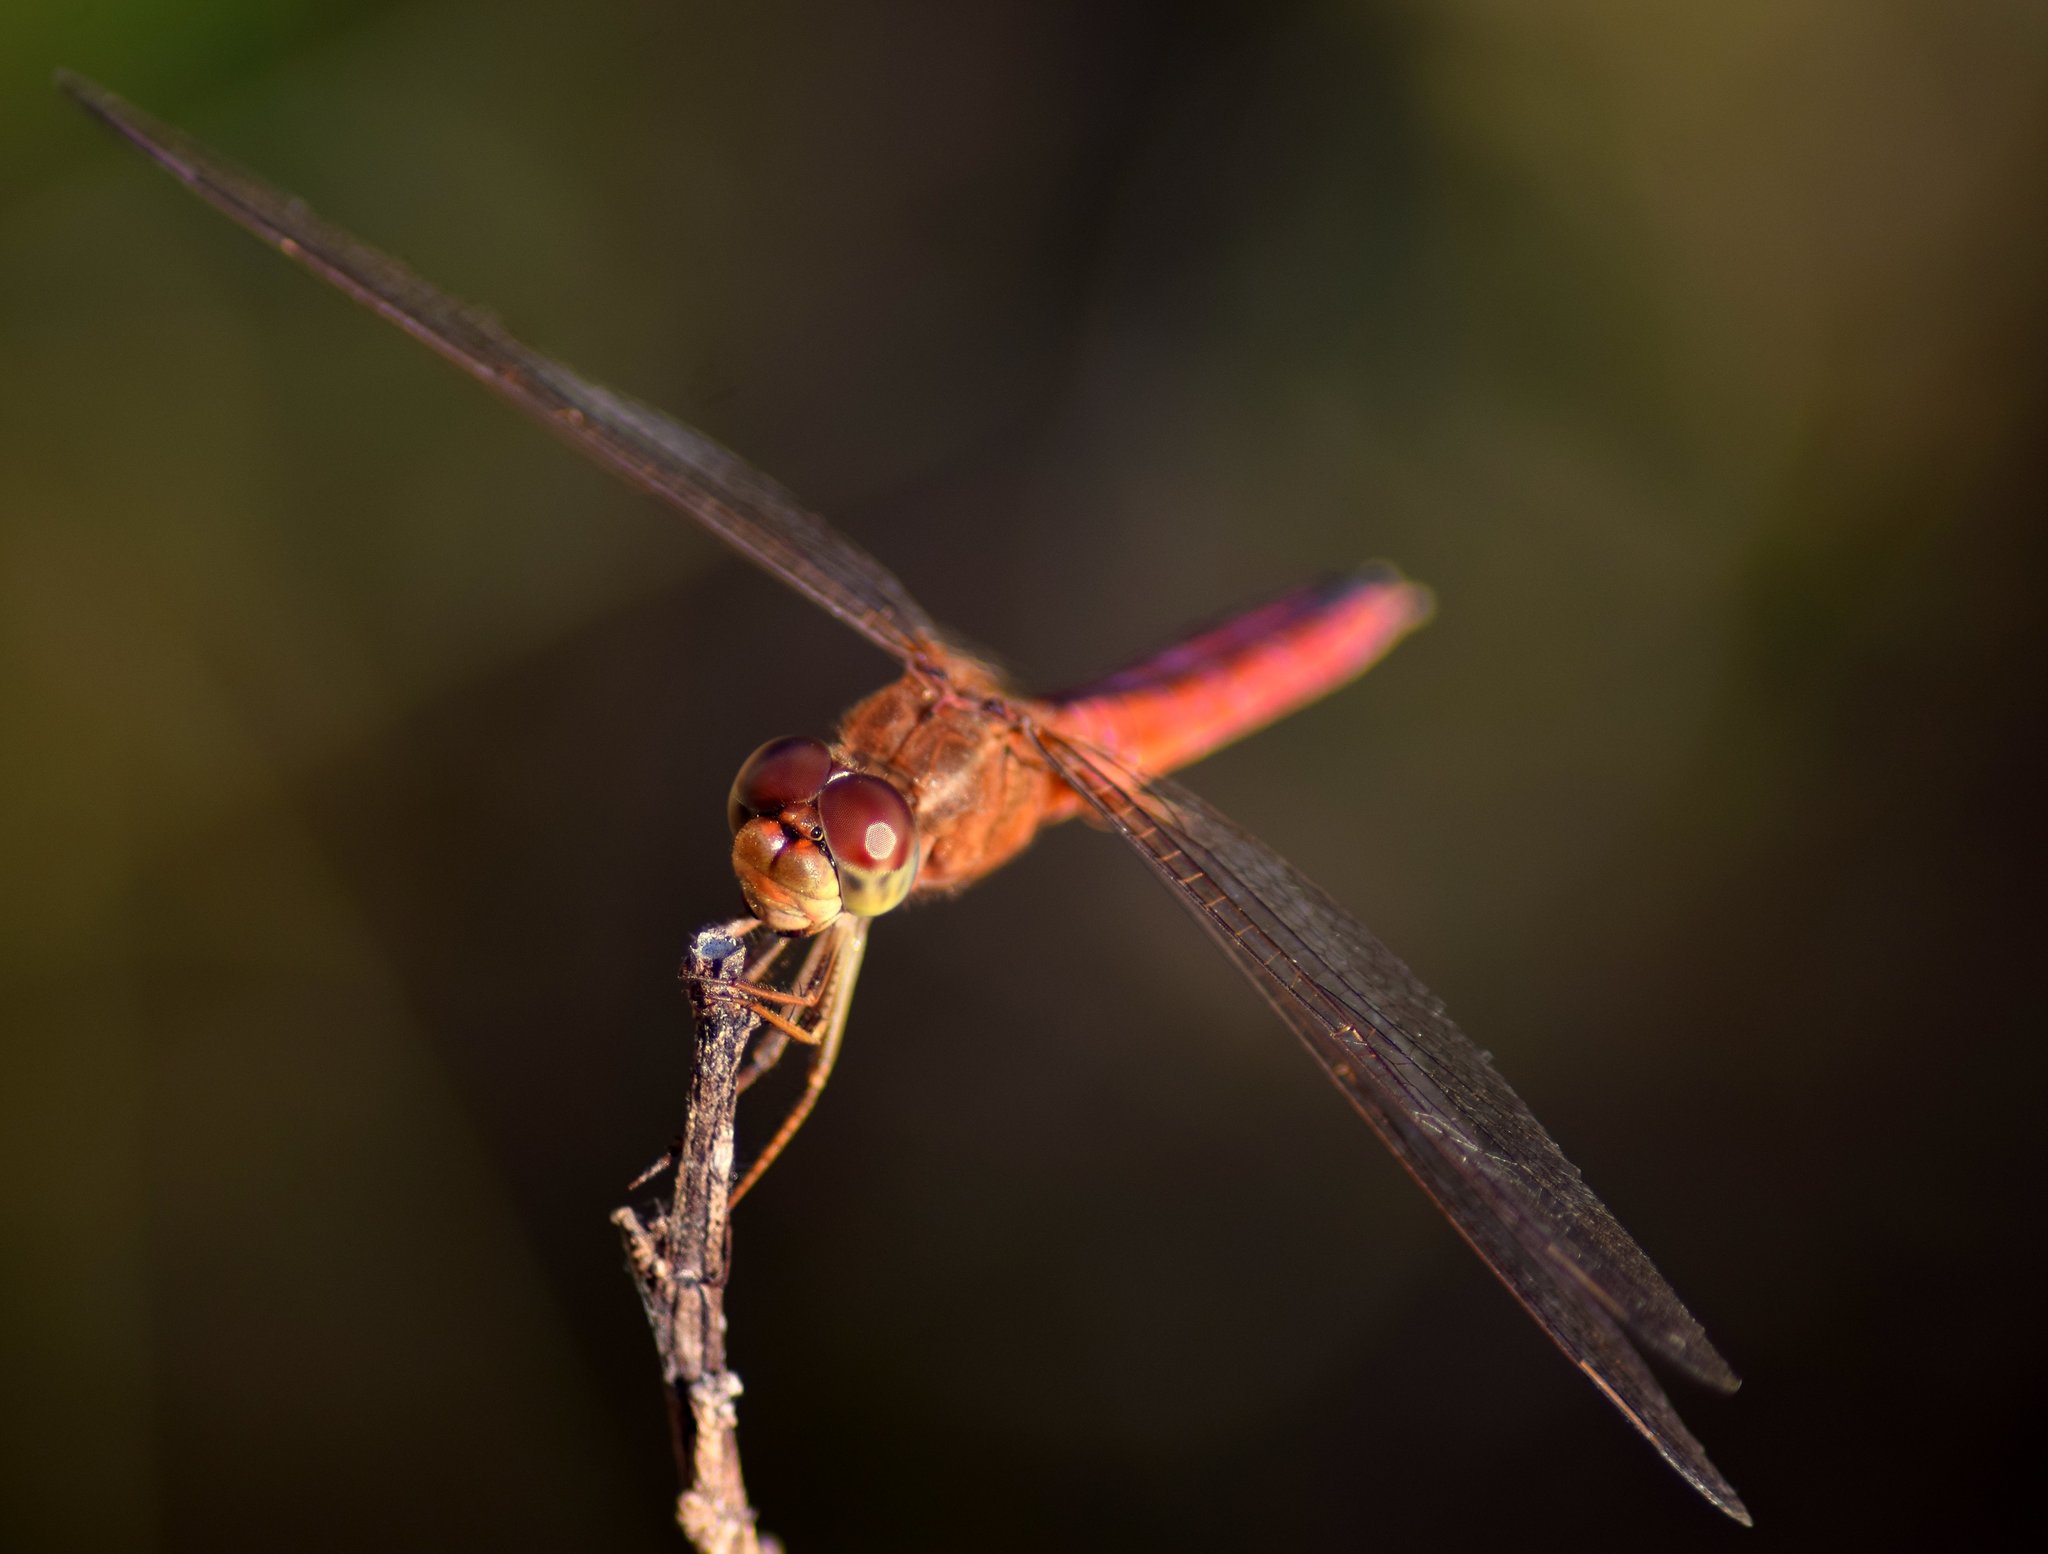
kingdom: Animalia
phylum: Arthropoda
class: Insecta
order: Odonata
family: Libellulidae
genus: Crocothemis
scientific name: Crocothemis servilia
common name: Scarlet skimmer
